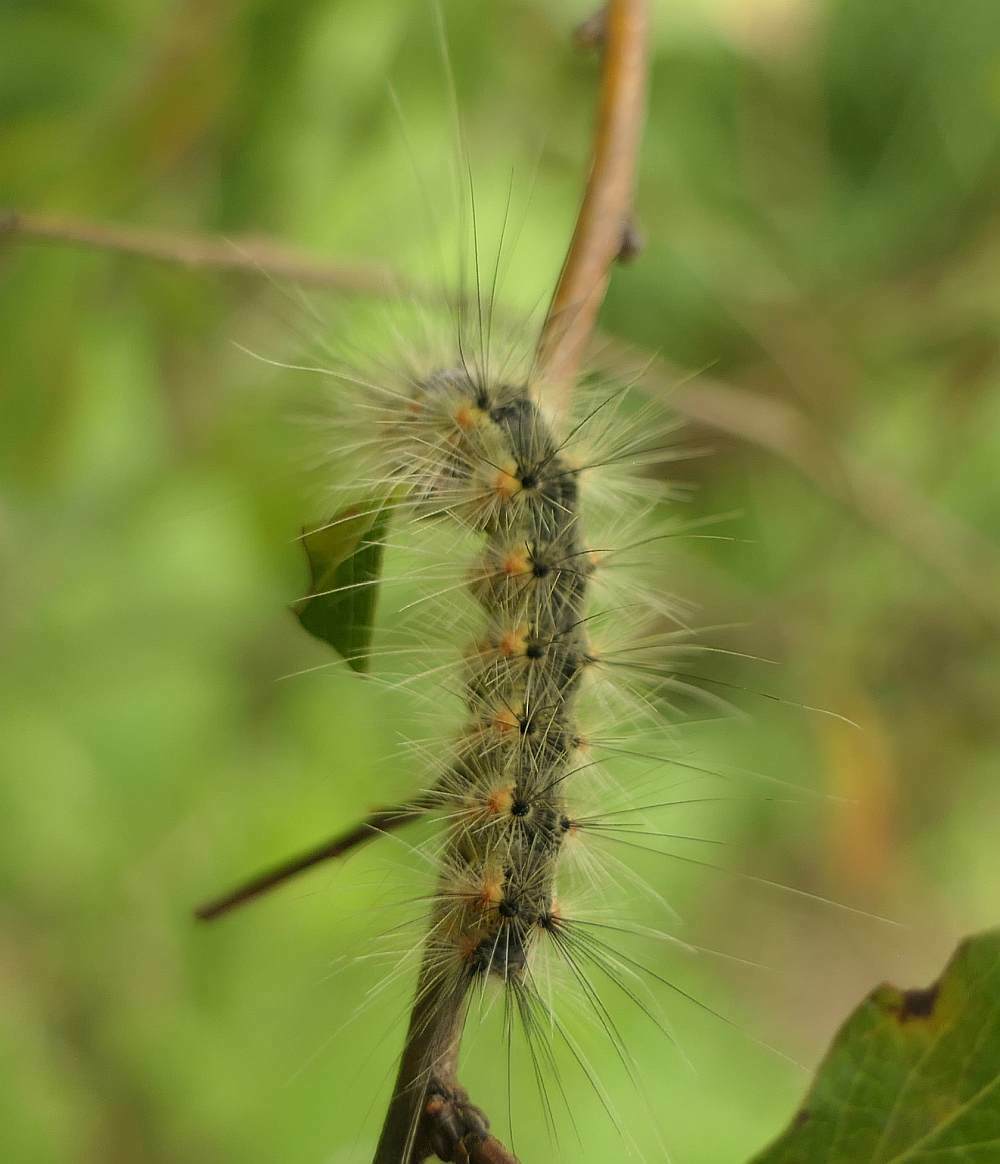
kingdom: Animalia
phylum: Arthropoda
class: Insecta
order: Lepidoptera
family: Erebidae
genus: Hyphantria
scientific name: Hyphantria cunea
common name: American white moth
